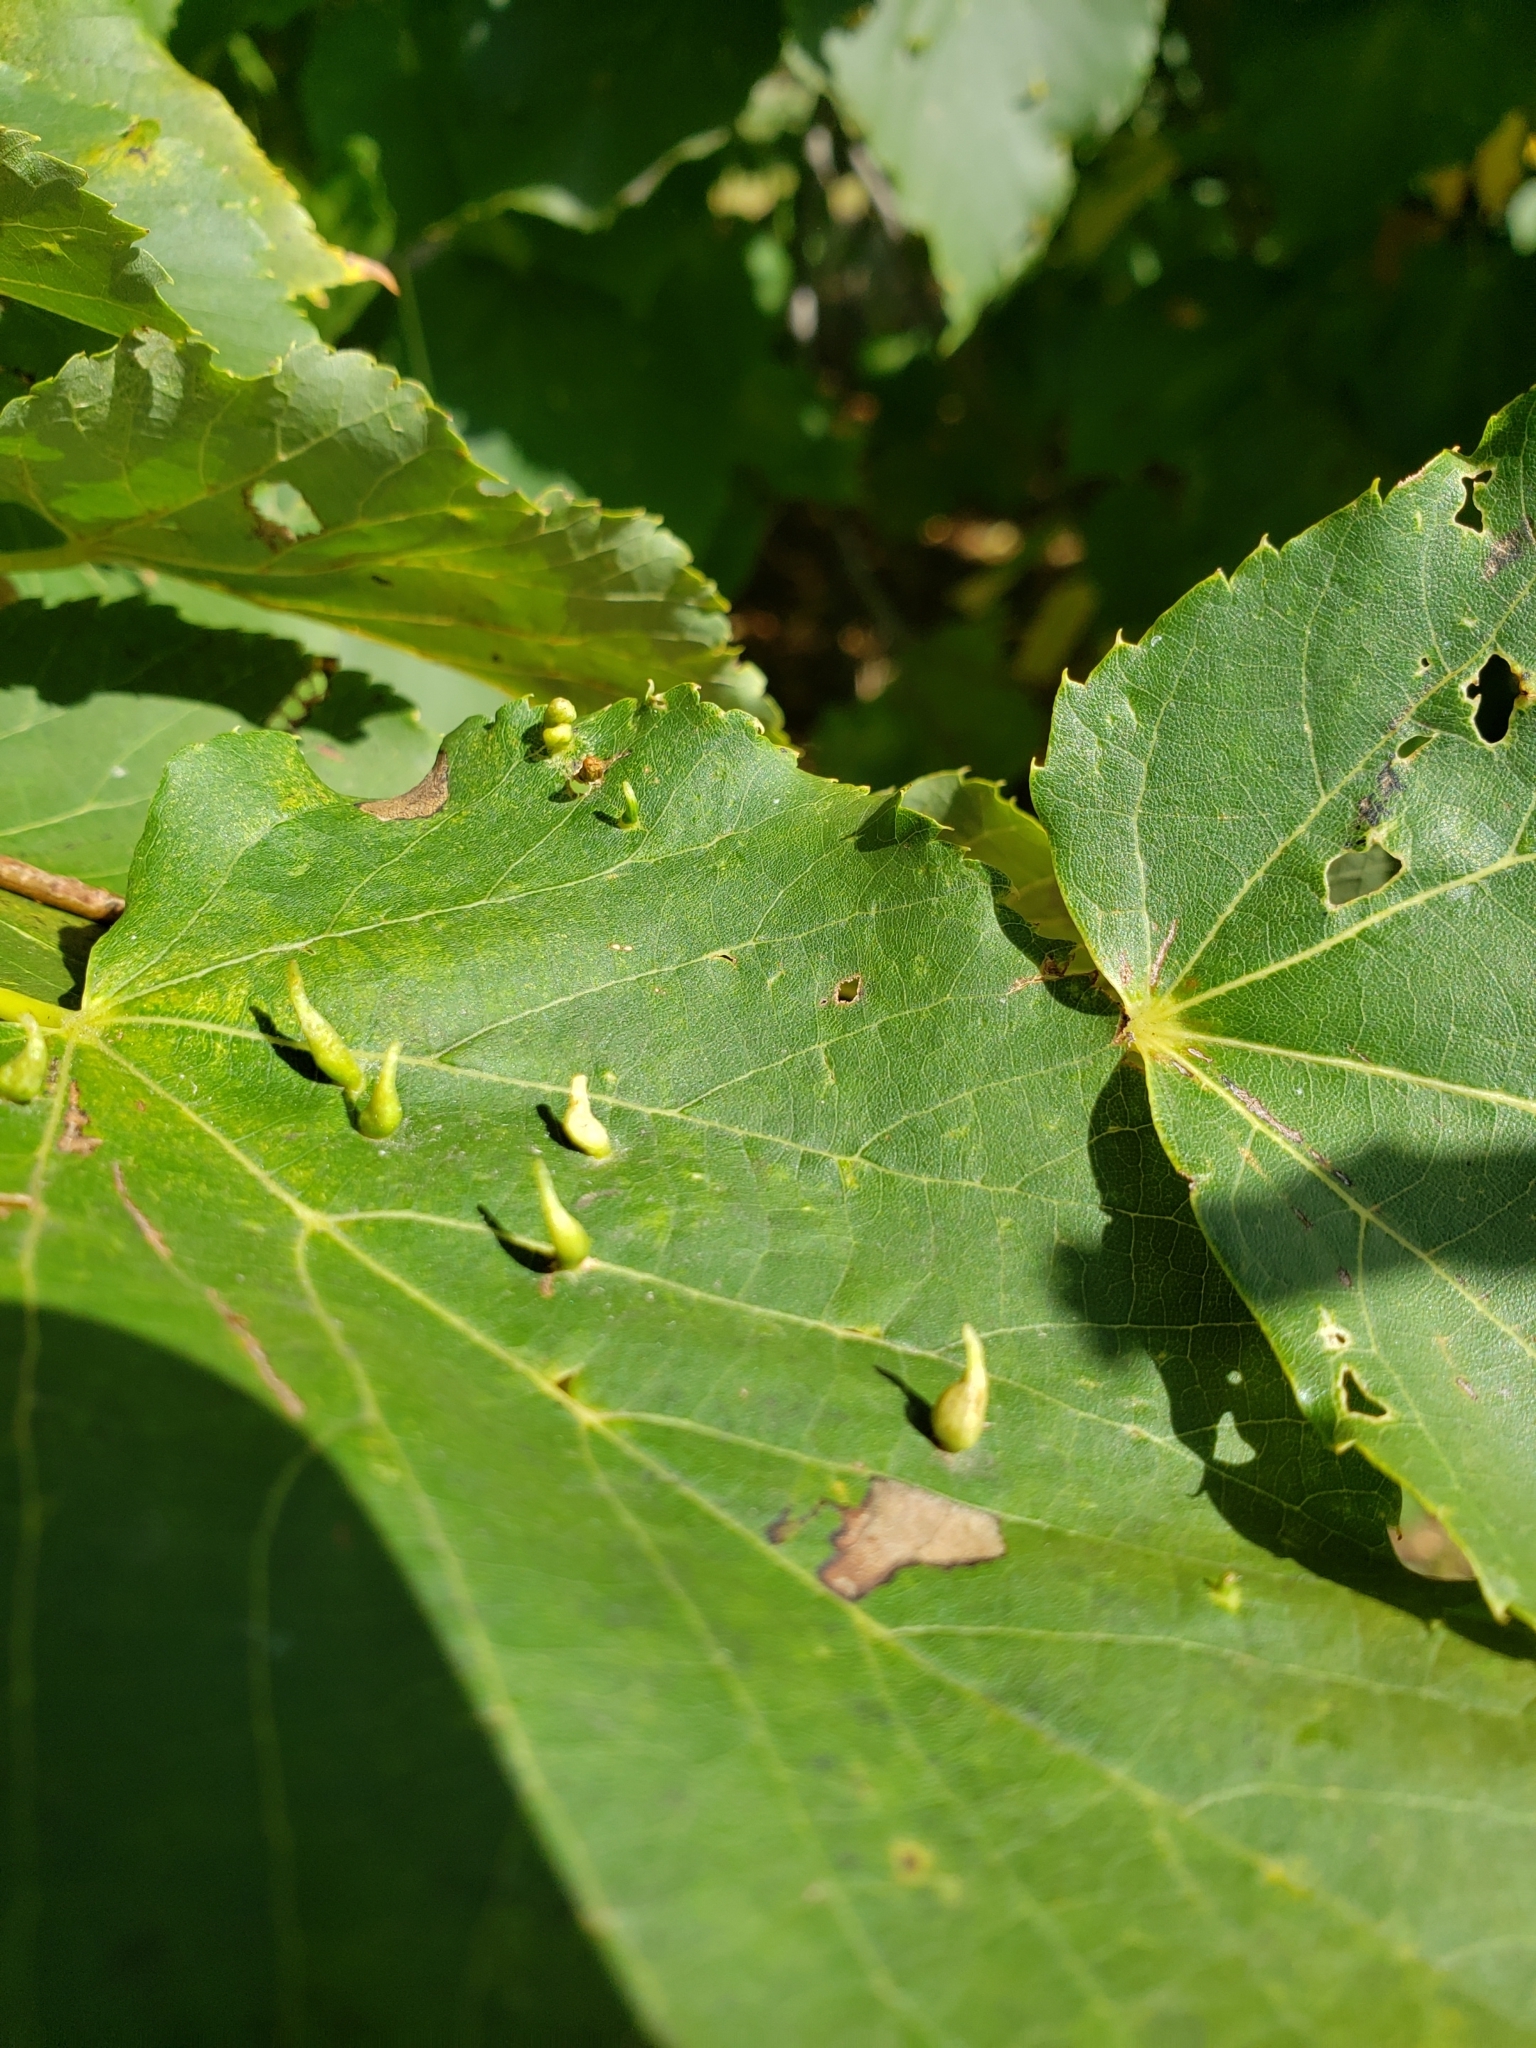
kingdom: Animalia
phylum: Arthropoda
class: Arachnida
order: Trombidiformes
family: Eriophyidae
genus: Eriophyes
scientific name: Eriophyes tiliae
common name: Red nail gall mite
